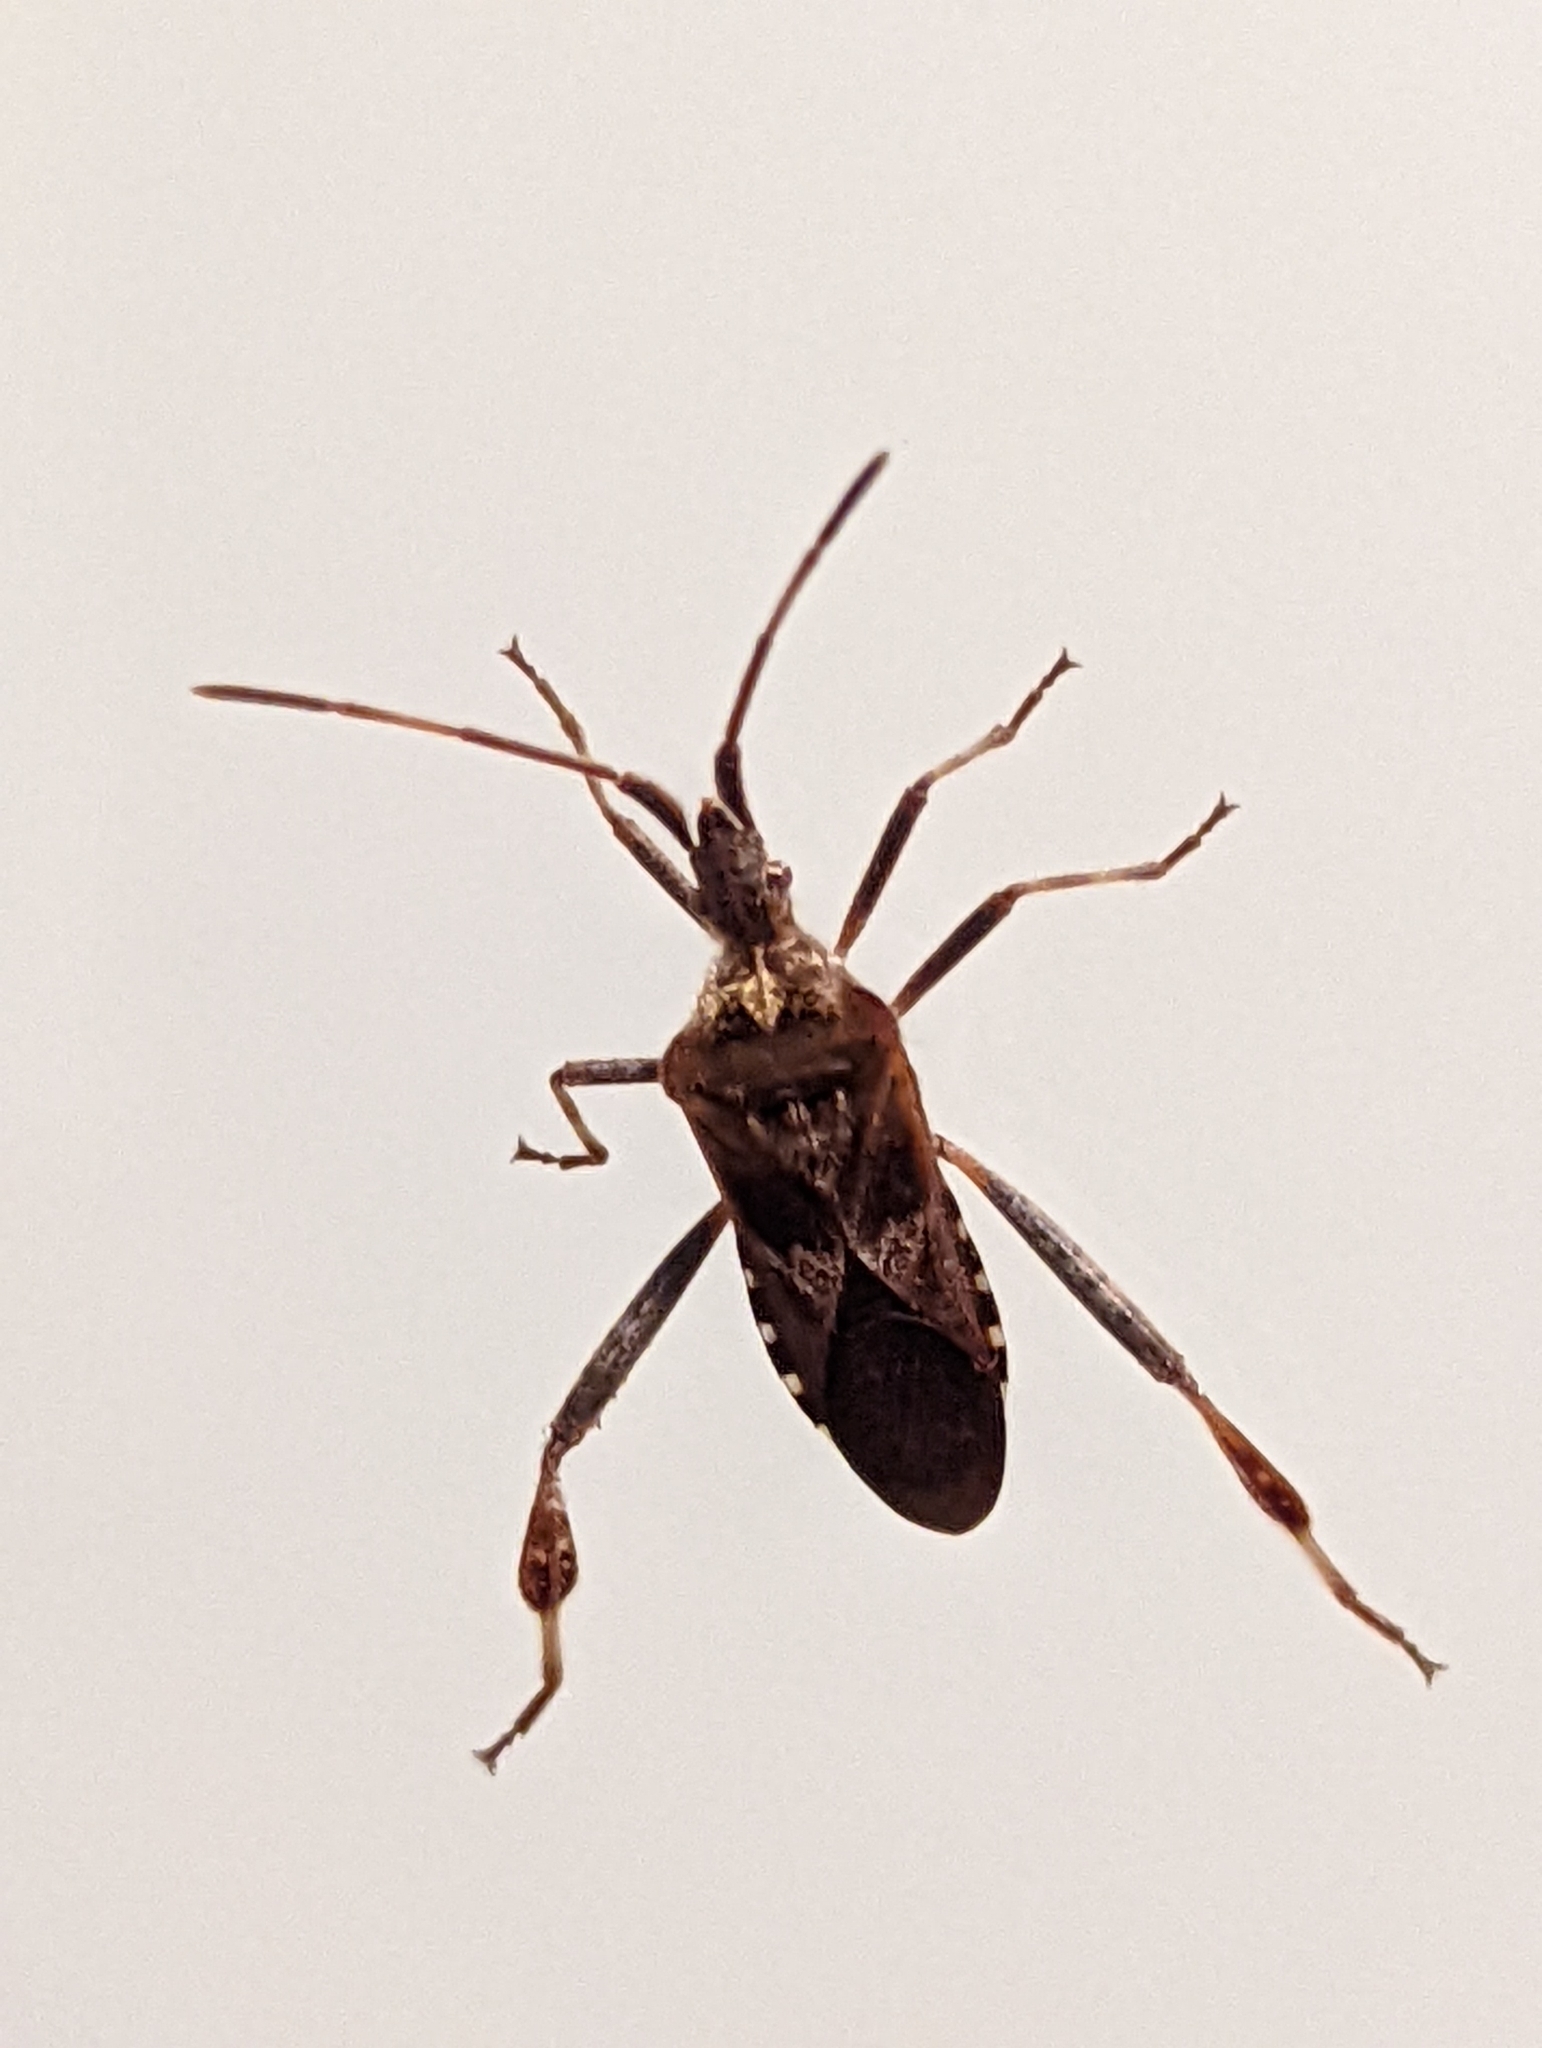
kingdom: Animalia
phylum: Arthropoda
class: Insecta
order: Hemiptera
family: Coreidae
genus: Leptoglossus
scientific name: Leptoglossus occidentalis
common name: Western conifer-seed bug
